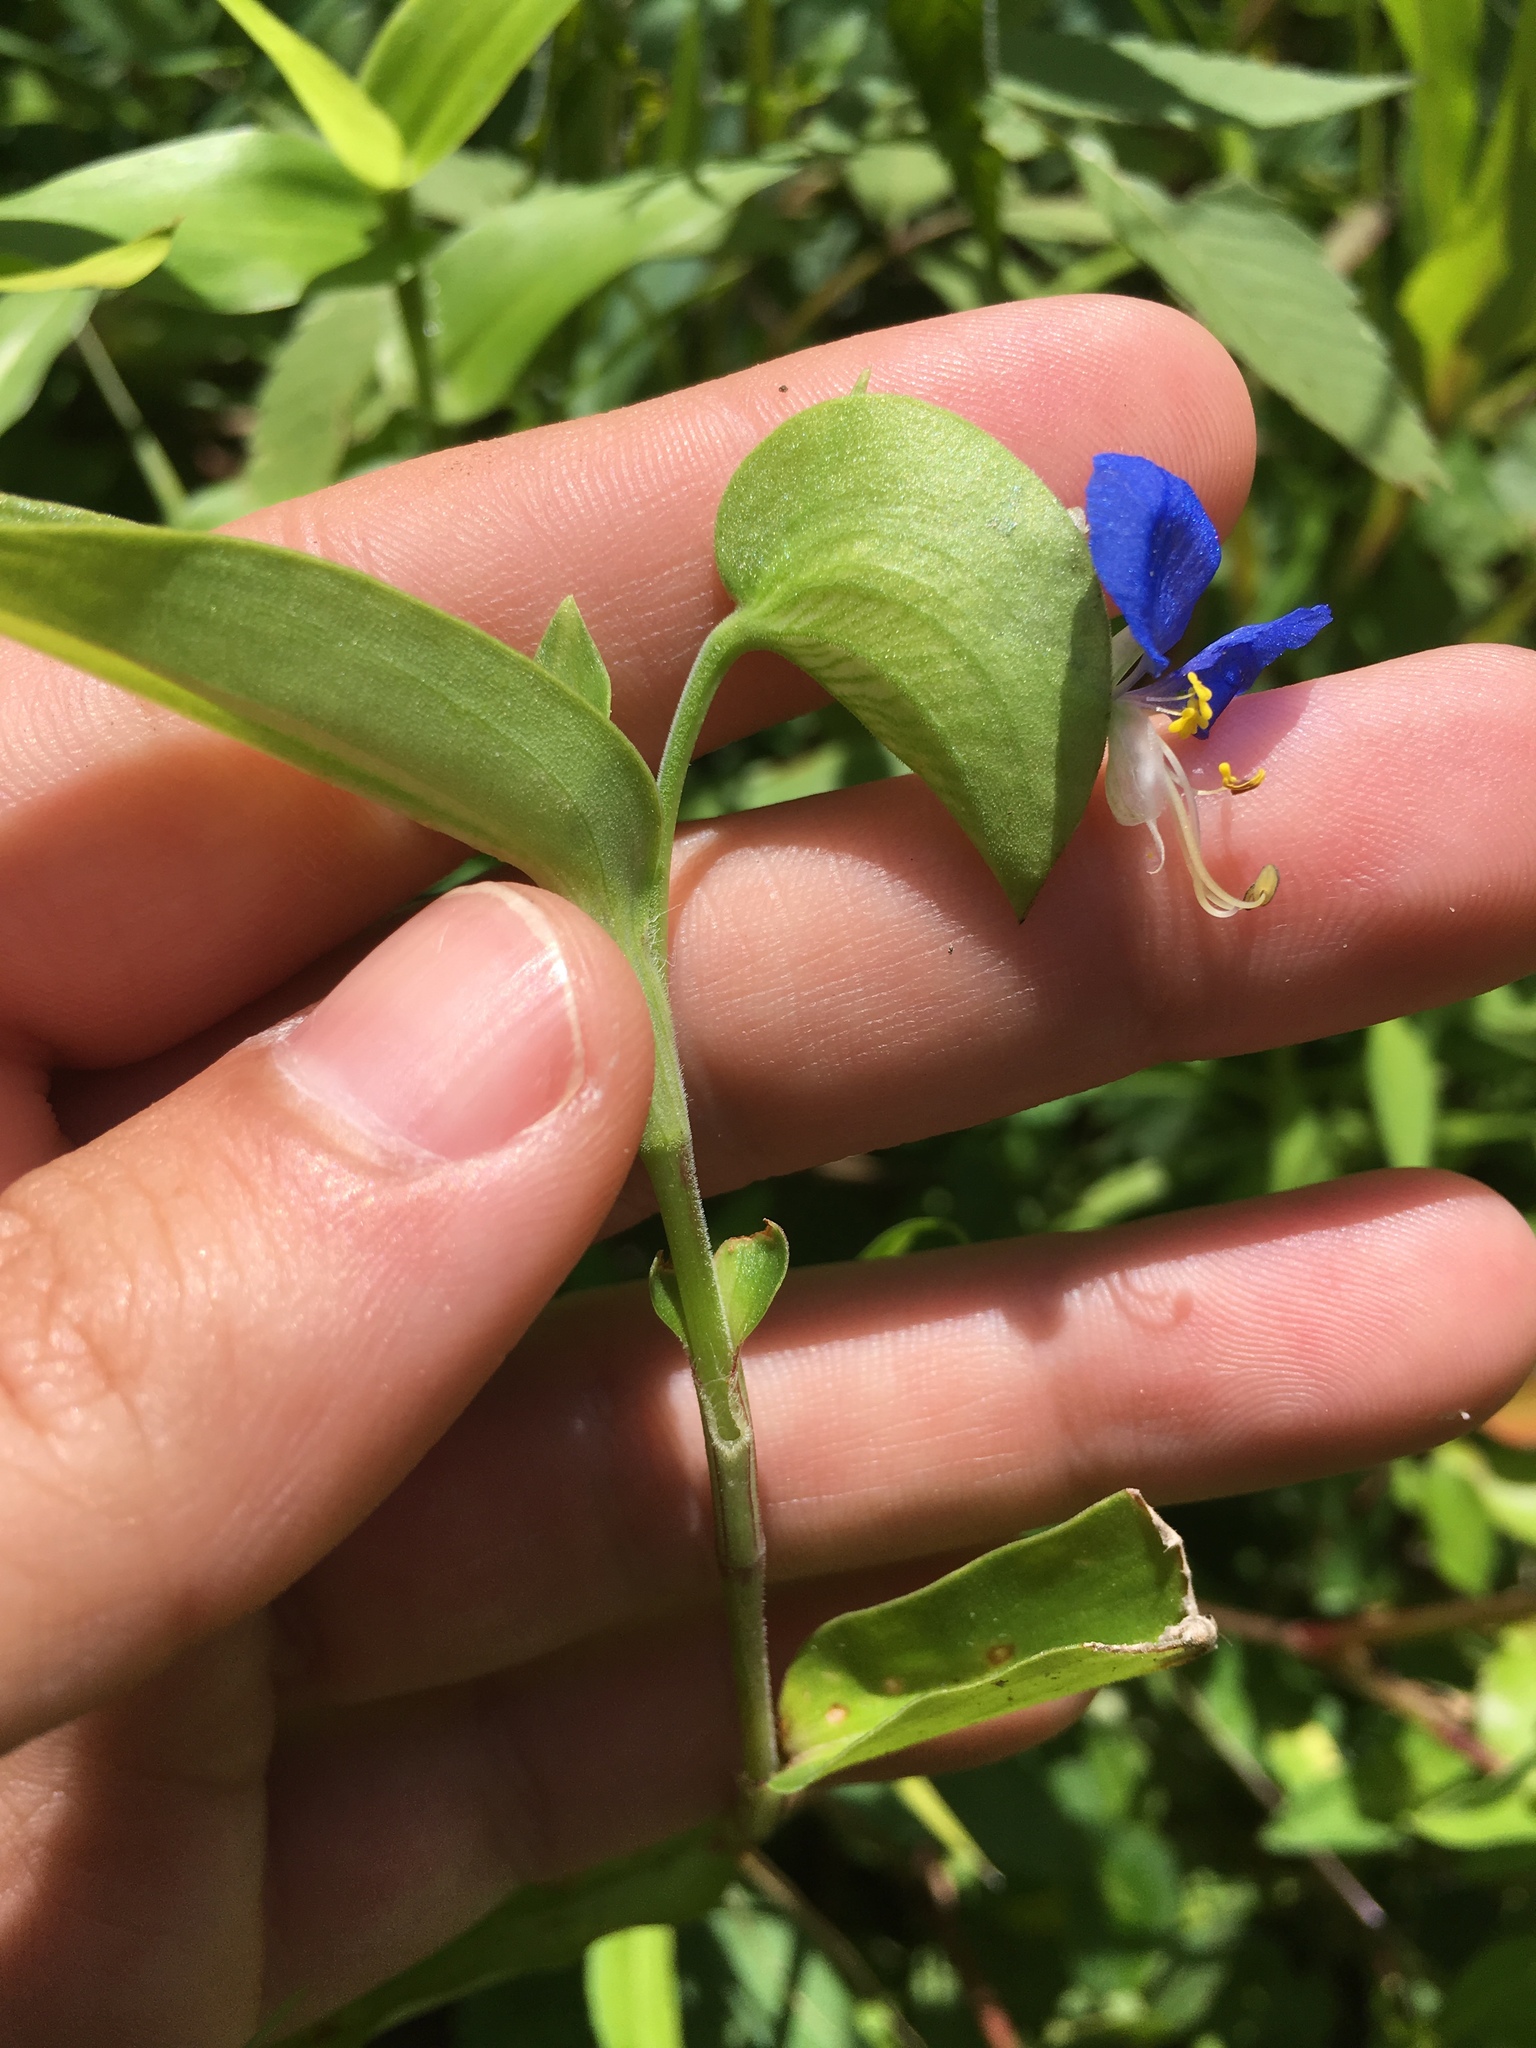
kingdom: Plantae
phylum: Tracheophyta
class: Liliopsida
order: Commelinales
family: Commelinaceae
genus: Commelina
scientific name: Commelina communis
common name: Asiatic dayflower
